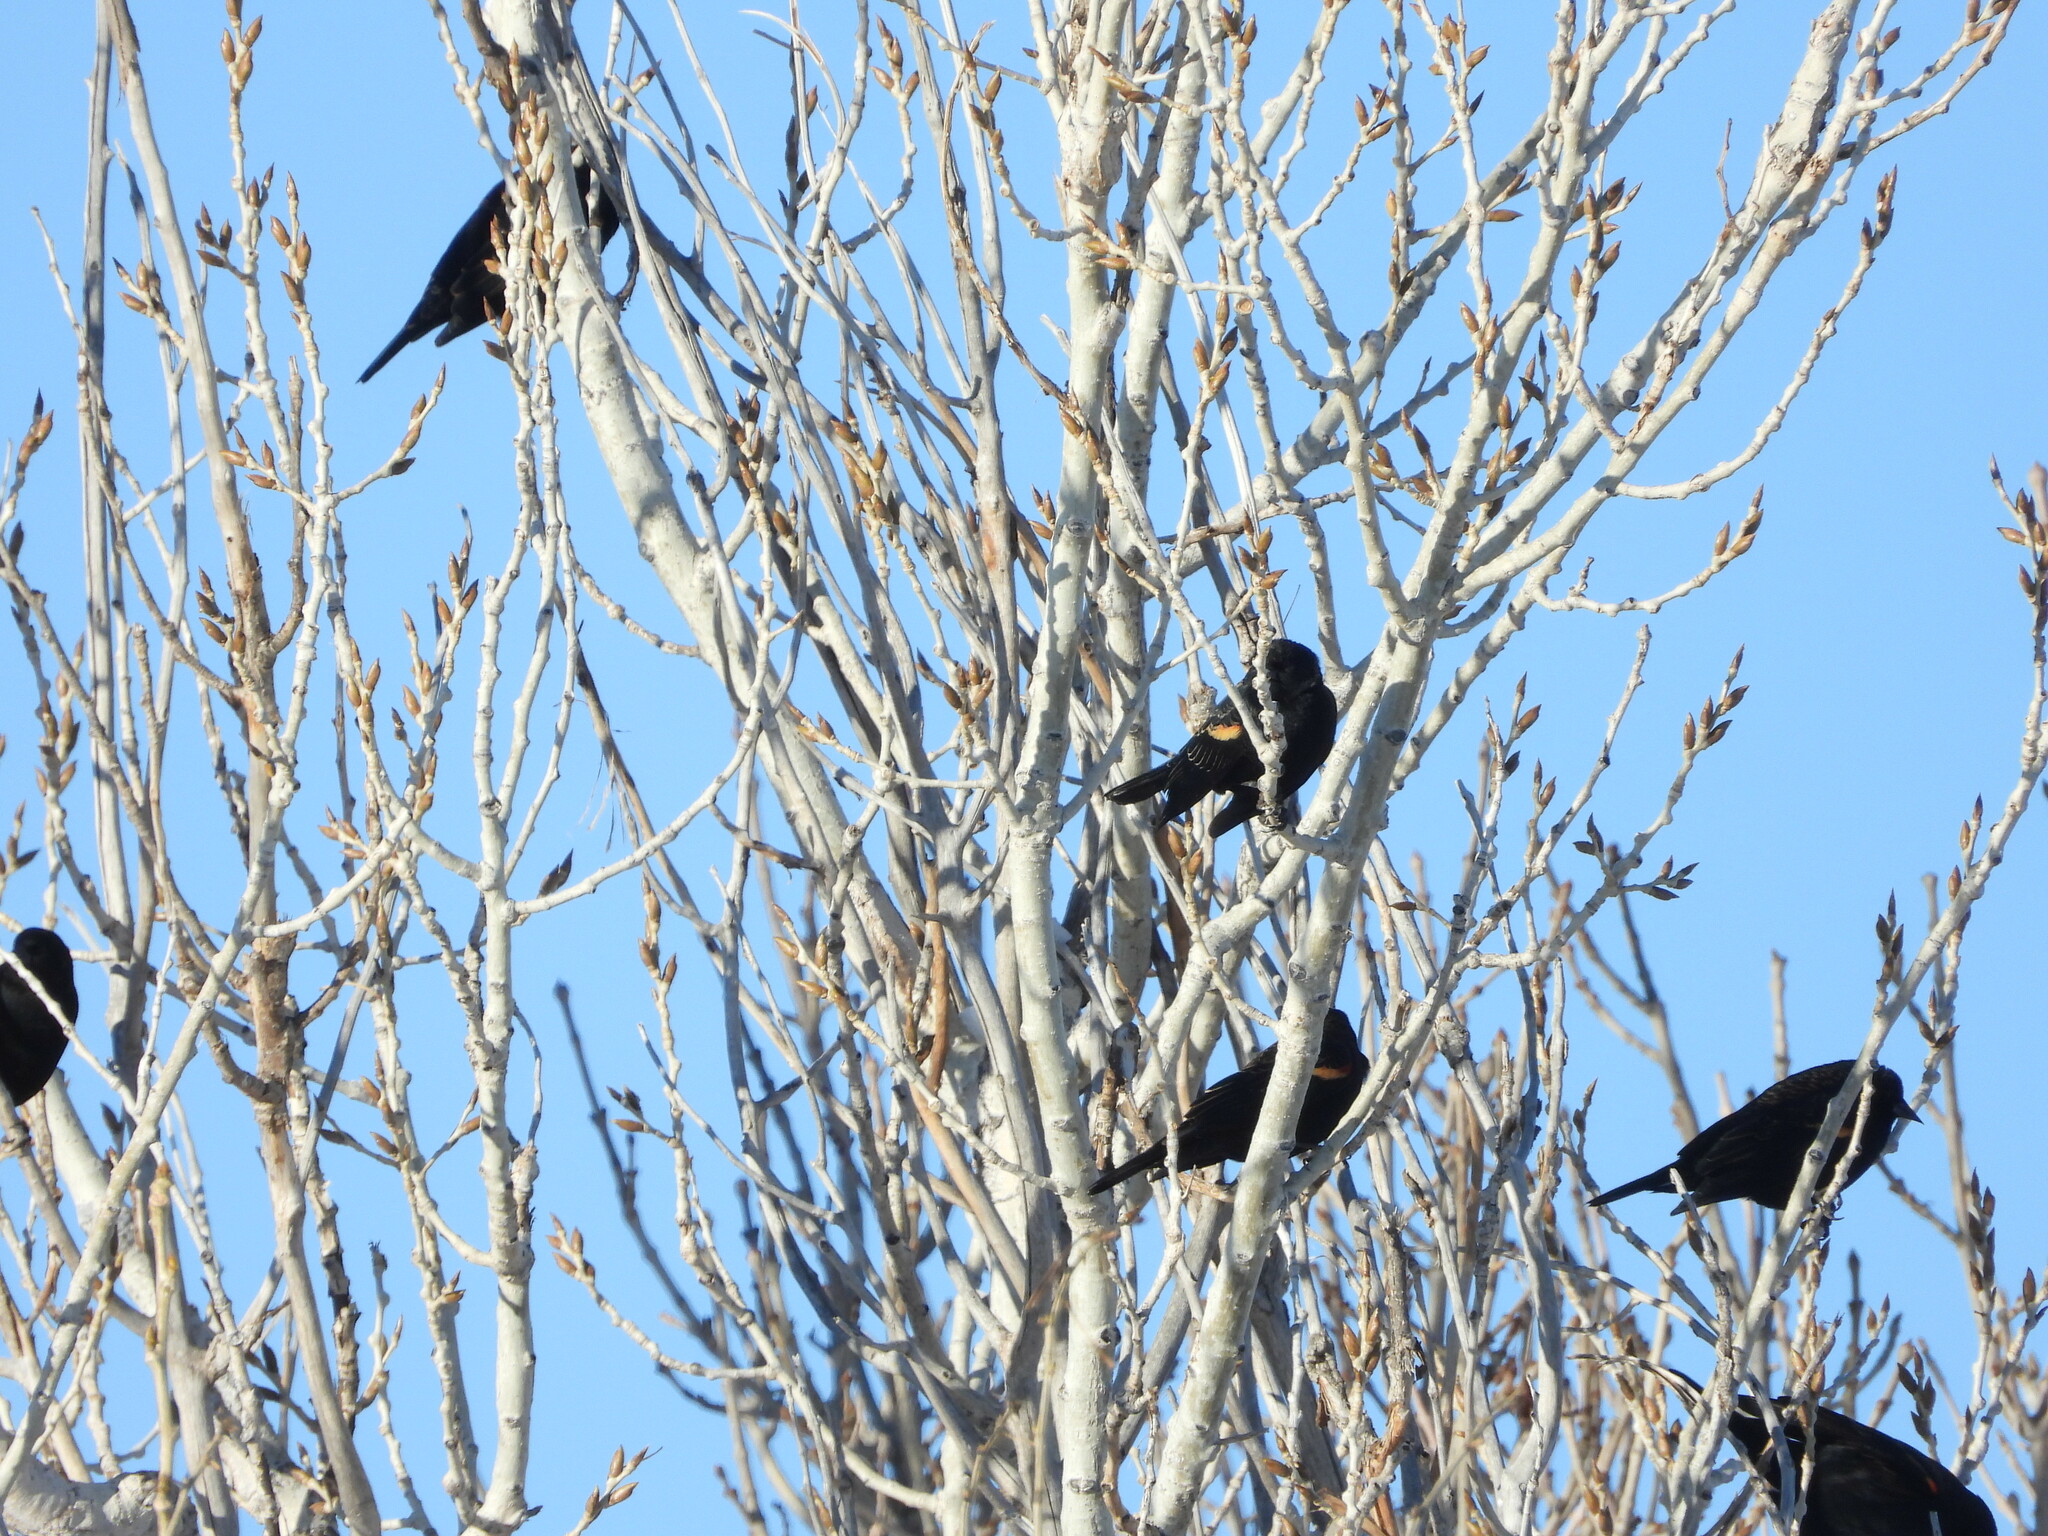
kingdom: Animalia
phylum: Chordata
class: Aves
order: Passeriformes
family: Icteridae
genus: Agelaius
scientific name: Agelaius phoeniceus
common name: Red-winged blackbird
